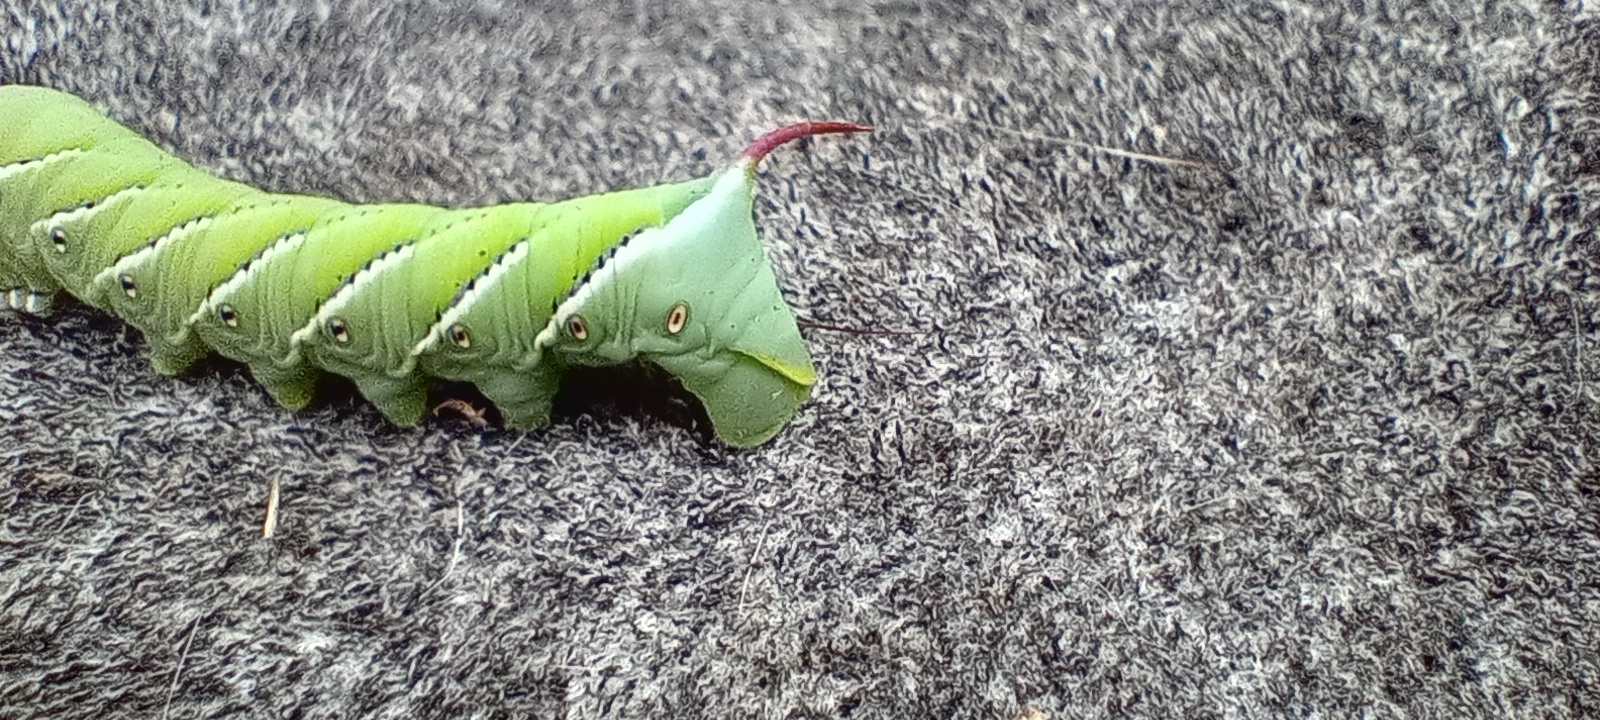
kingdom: Animalia
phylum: Arthropoda
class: Insecta
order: Lepidoptera
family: Sphingidae
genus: Manduca
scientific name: Manduca sexta
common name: Carolina sphinx
